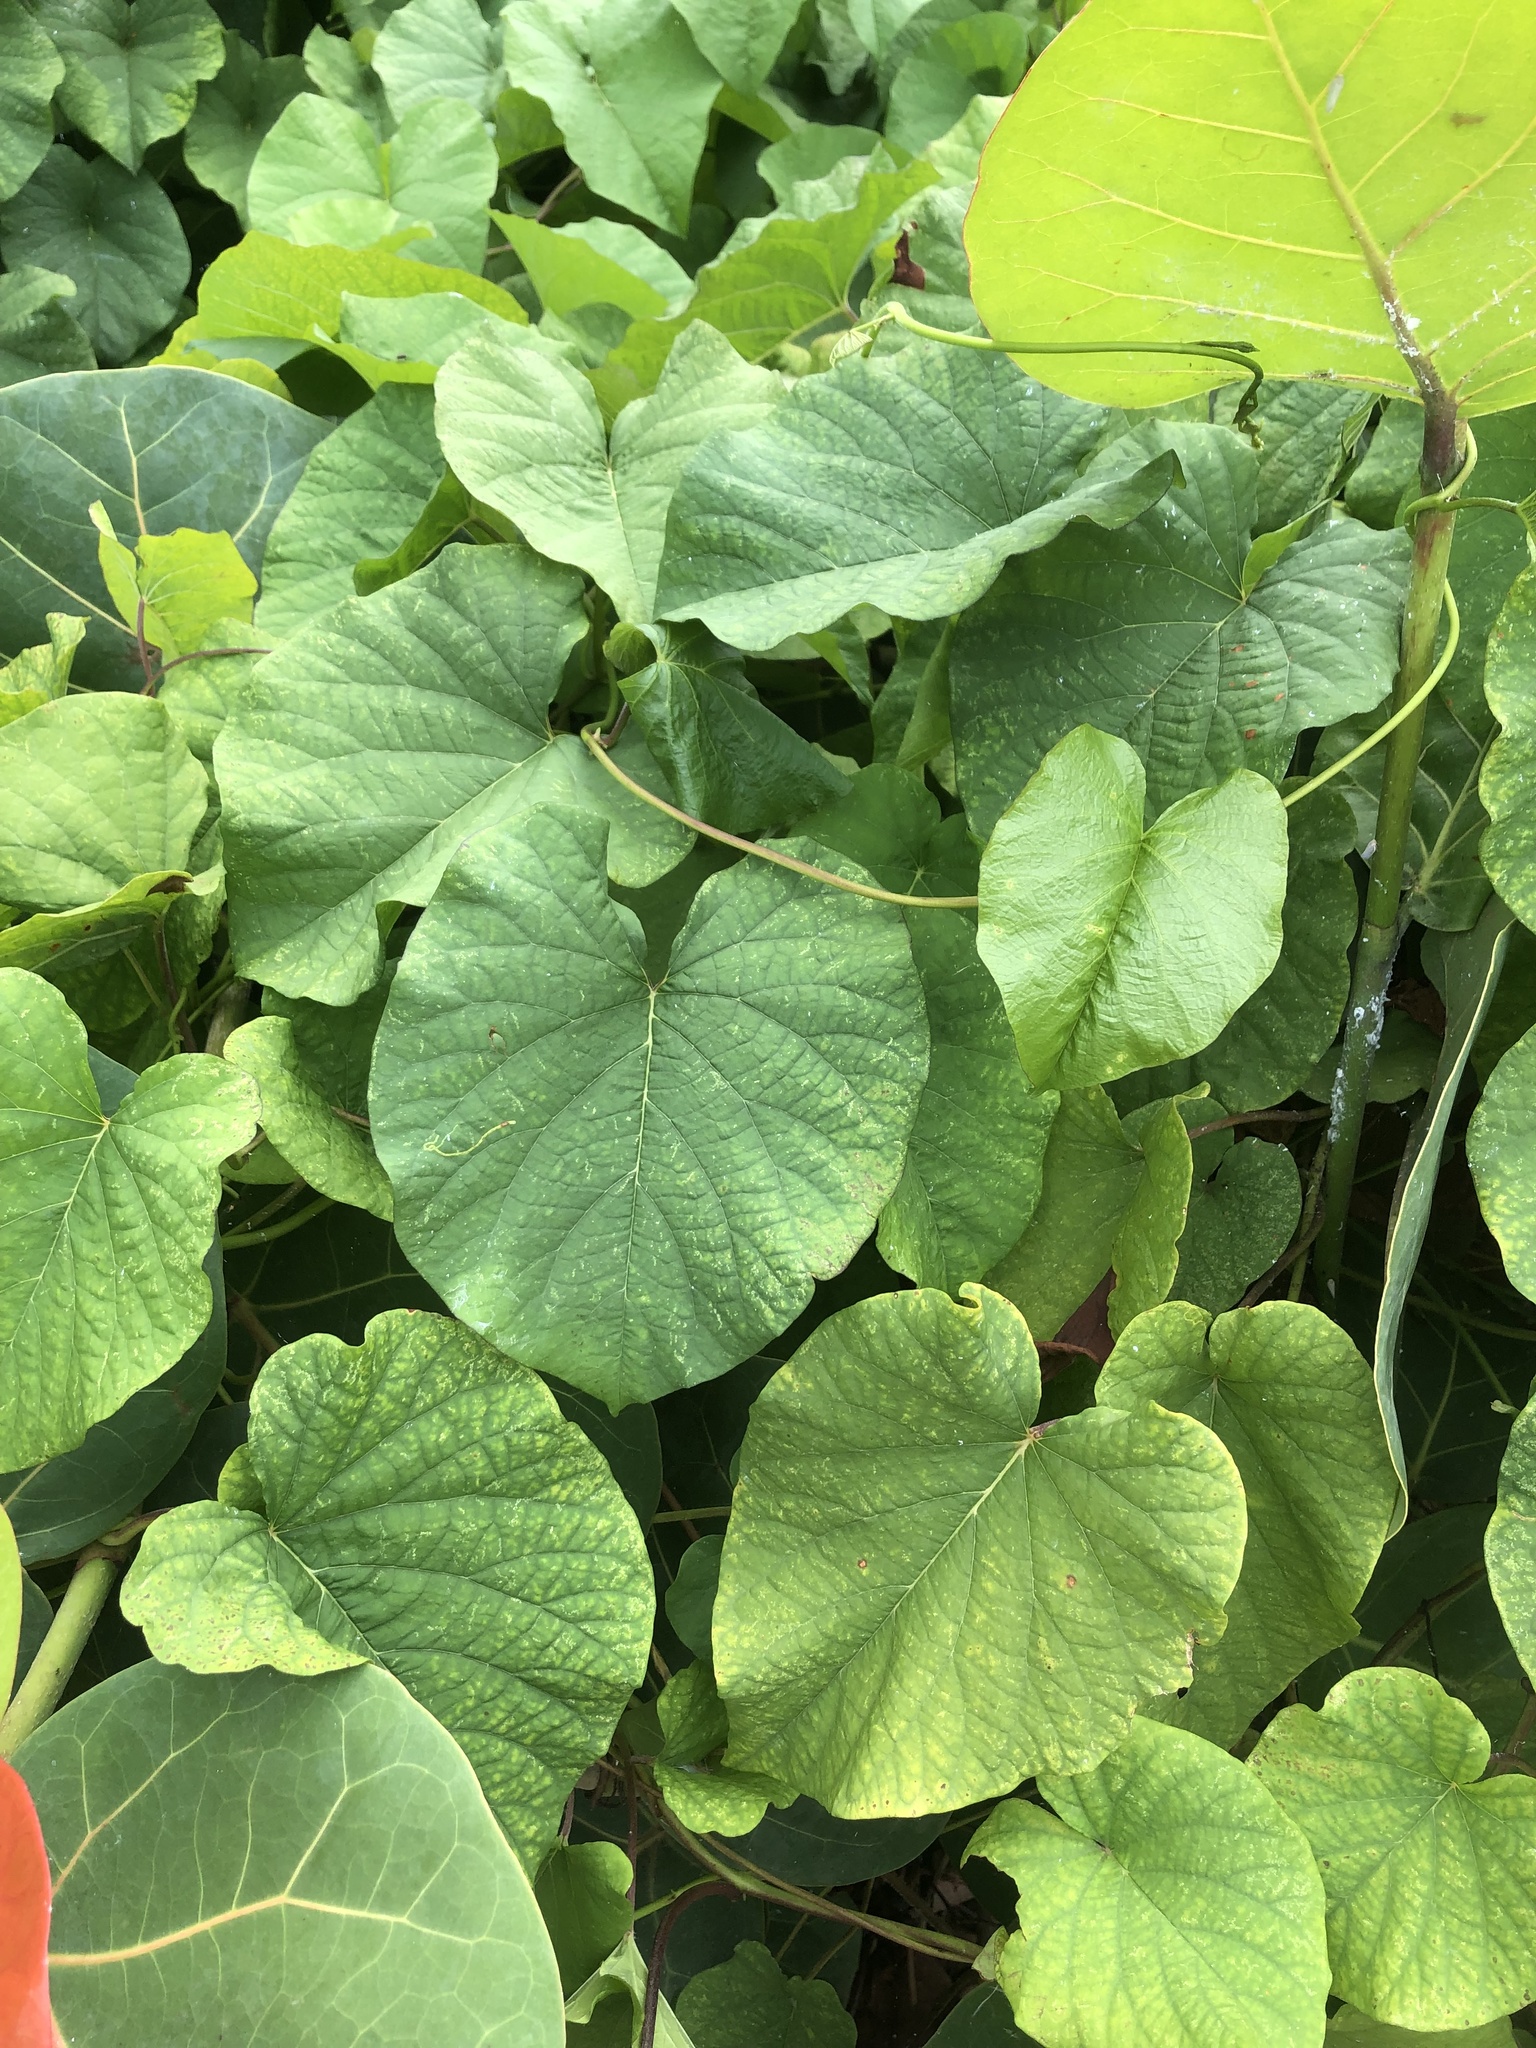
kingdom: Plantae
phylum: Tracheophyta
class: Magnoliopsida
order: Solanales
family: Convolvulaceae
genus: Camonea
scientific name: Camonea umbellata
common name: Hogvine
